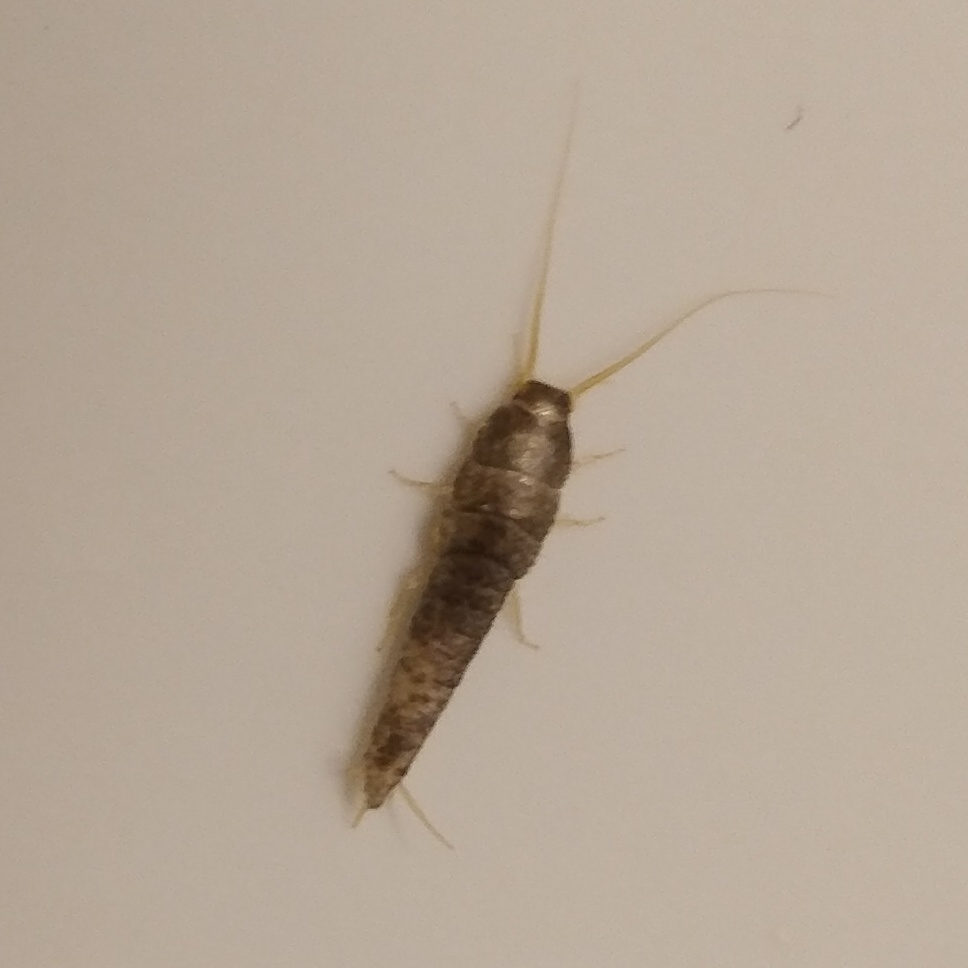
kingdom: Animalia
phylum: Arthropoda
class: Insecta
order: Zygentoma
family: Lepismatidae
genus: Lepisma
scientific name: Lepisma saccharinum
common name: Silverfish
